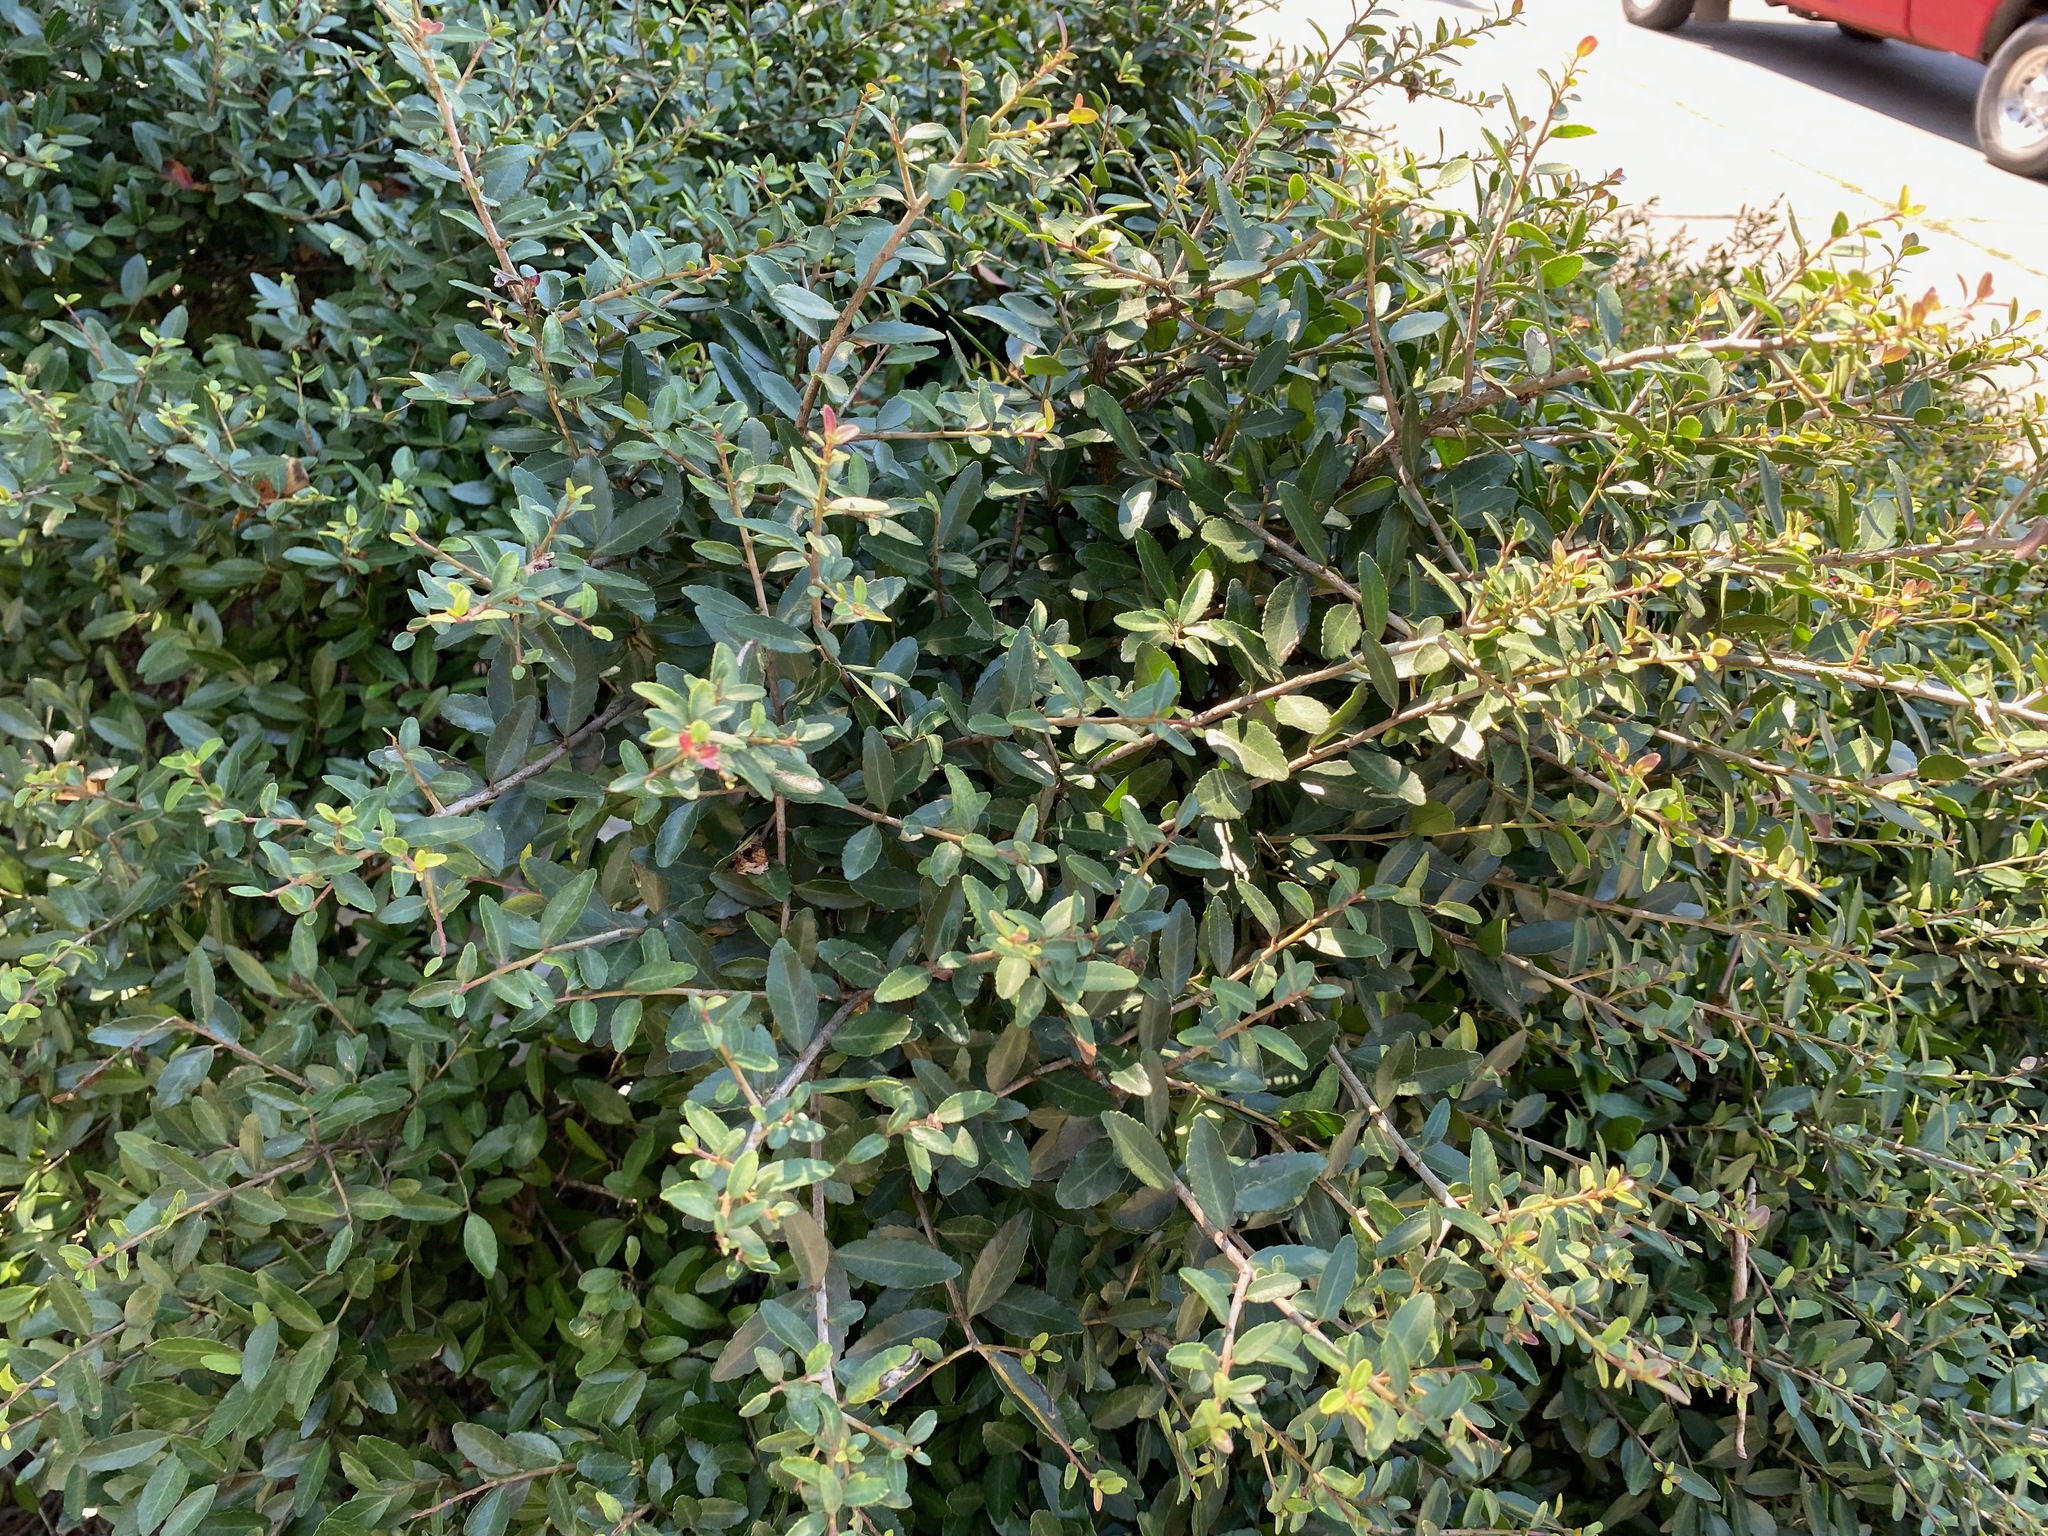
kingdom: Plantae
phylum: Tracheophyta
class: Magnoliopsida
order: Aquifoliales
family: Aquifoliaceae
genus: Ilex
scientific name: Ilex vomitoria
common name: Yaupon holly
